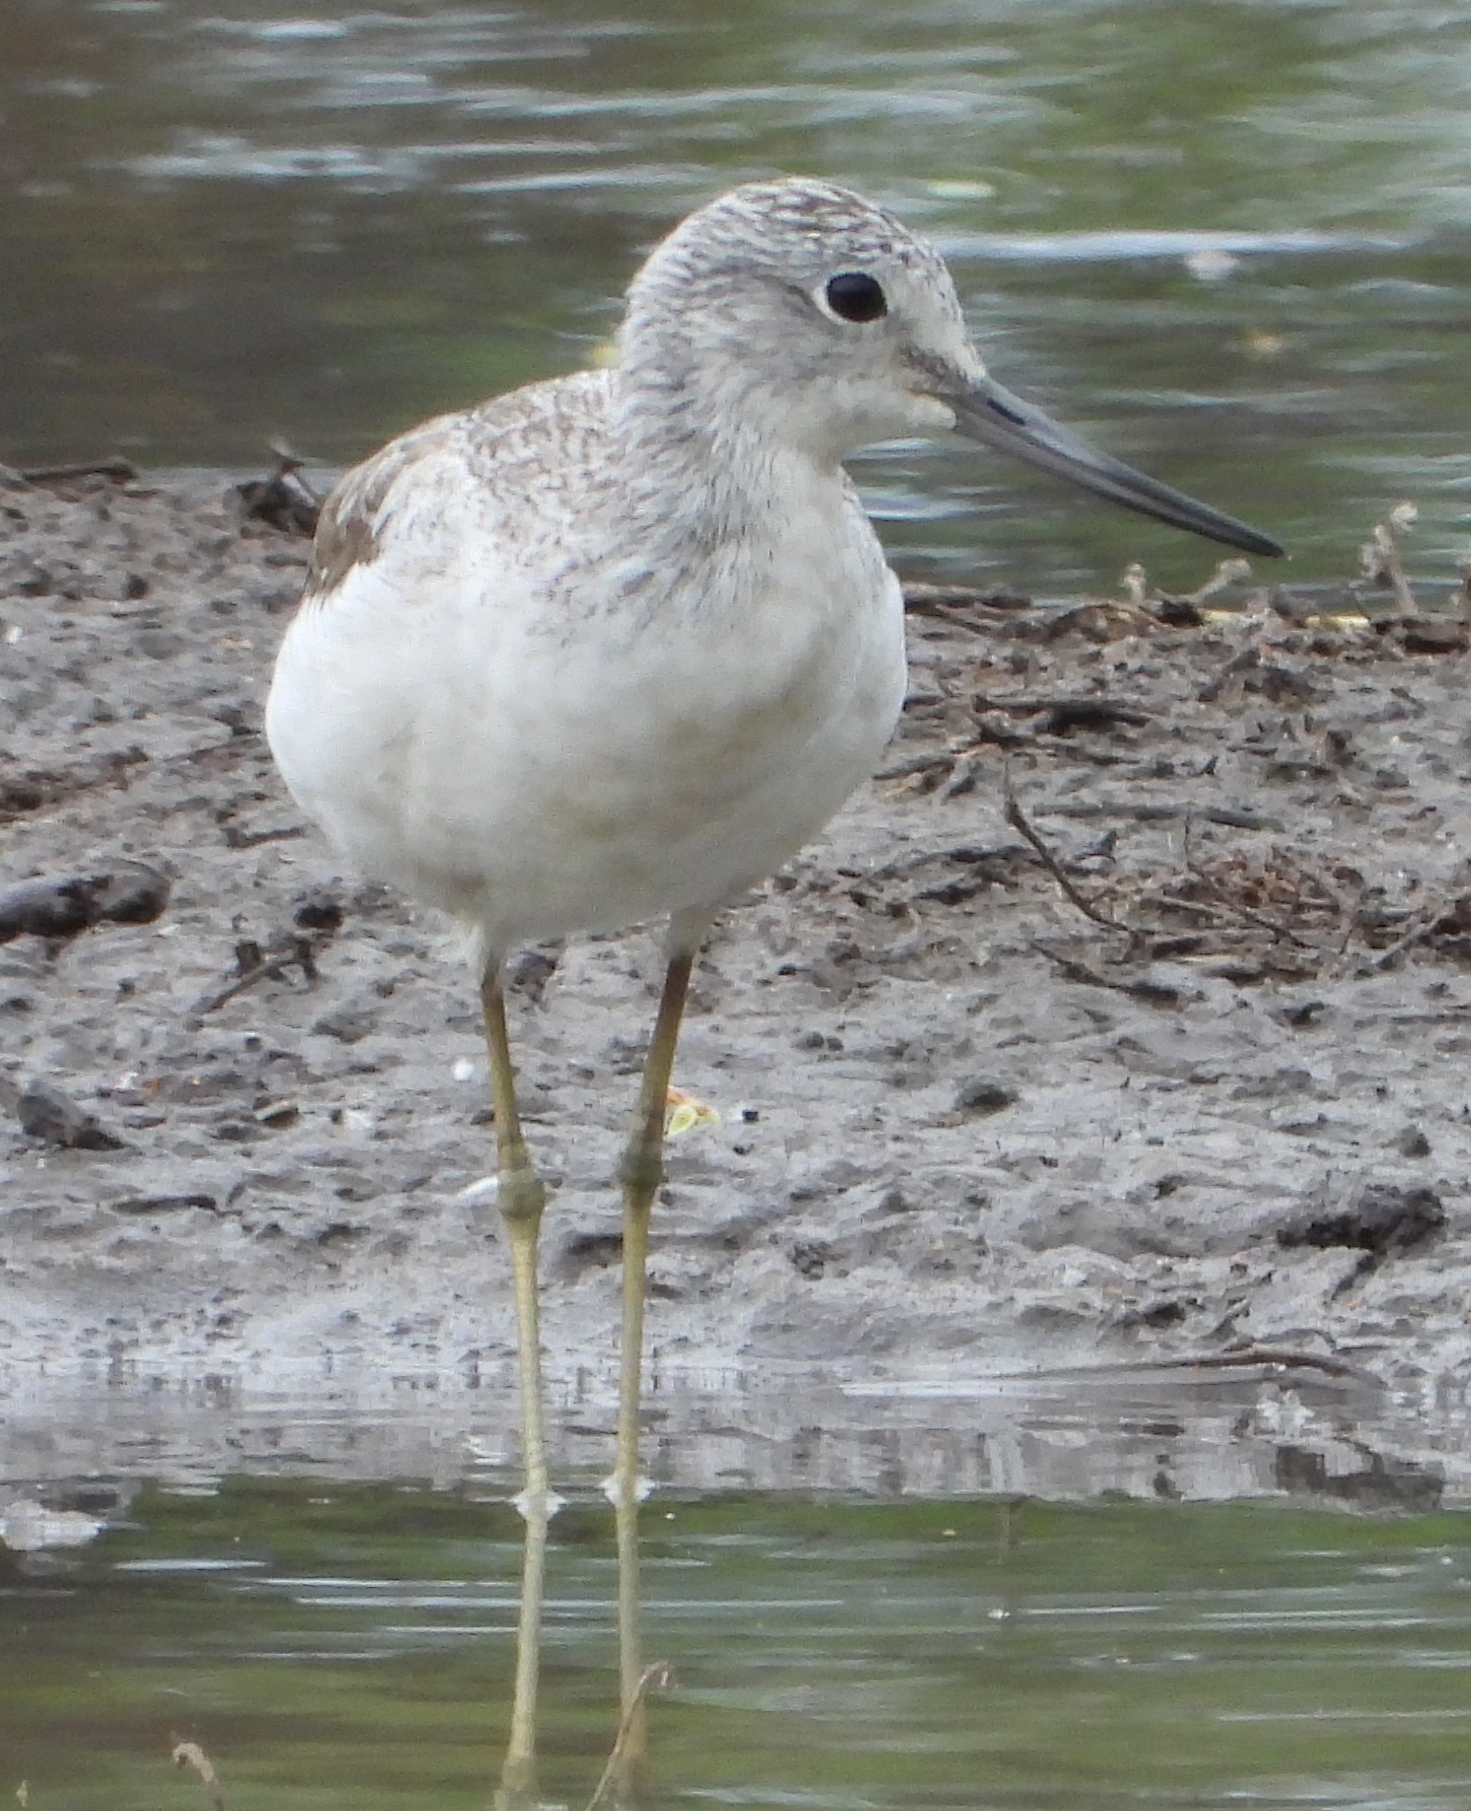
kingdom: Animalia
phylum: Chordata
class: Aves
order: Charadriiformes
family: Scolopacidae
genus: Tringa
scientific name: Tringa nebularia
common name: Common greenshank
